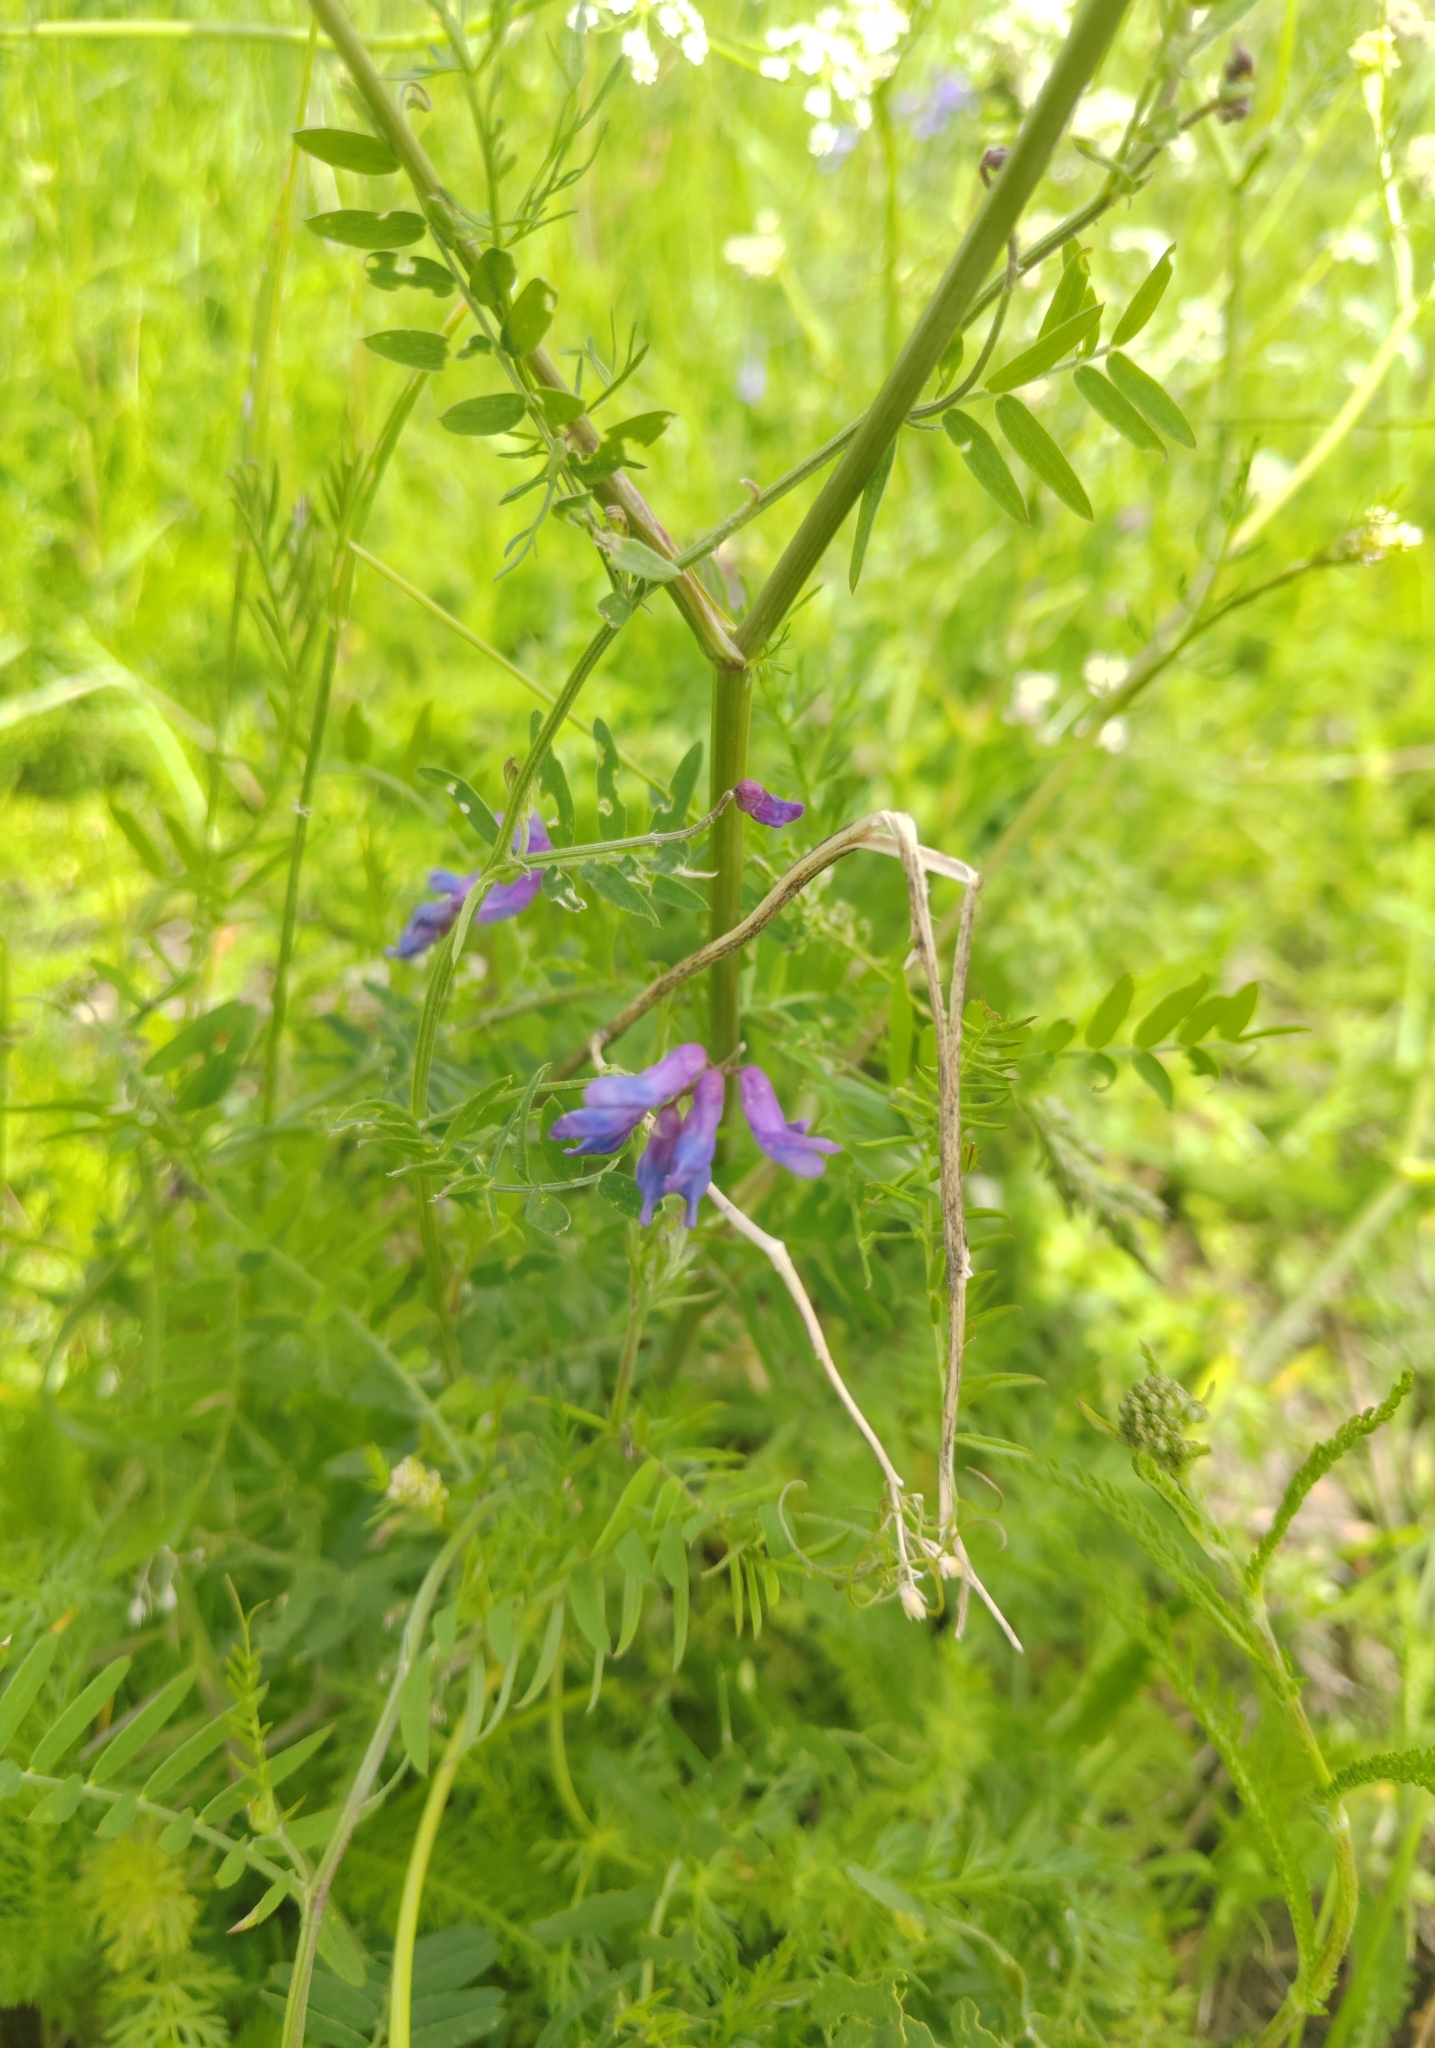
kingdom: Plantae
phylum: Tracheophyta
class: Magnoliopsida
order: Fabales
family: Fabaceae
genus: Vicia
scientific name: Vicia cracca
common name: Bird vetch
